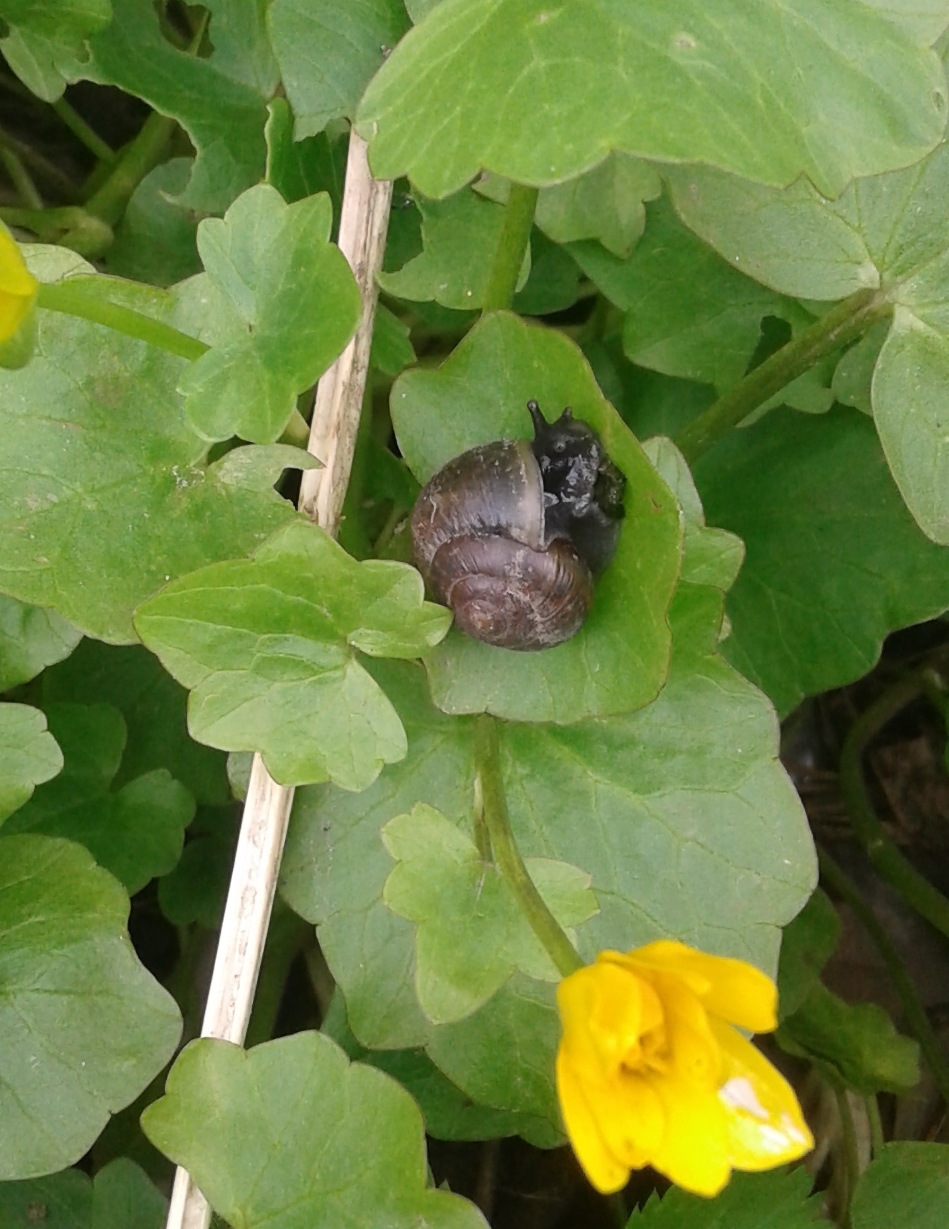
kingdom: Animalia
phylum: Mollusca
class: Gastropoda
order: Stylommatophora
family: Helicidae
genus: Arianta
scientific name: Arianta arbustorum
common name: Copse snail
